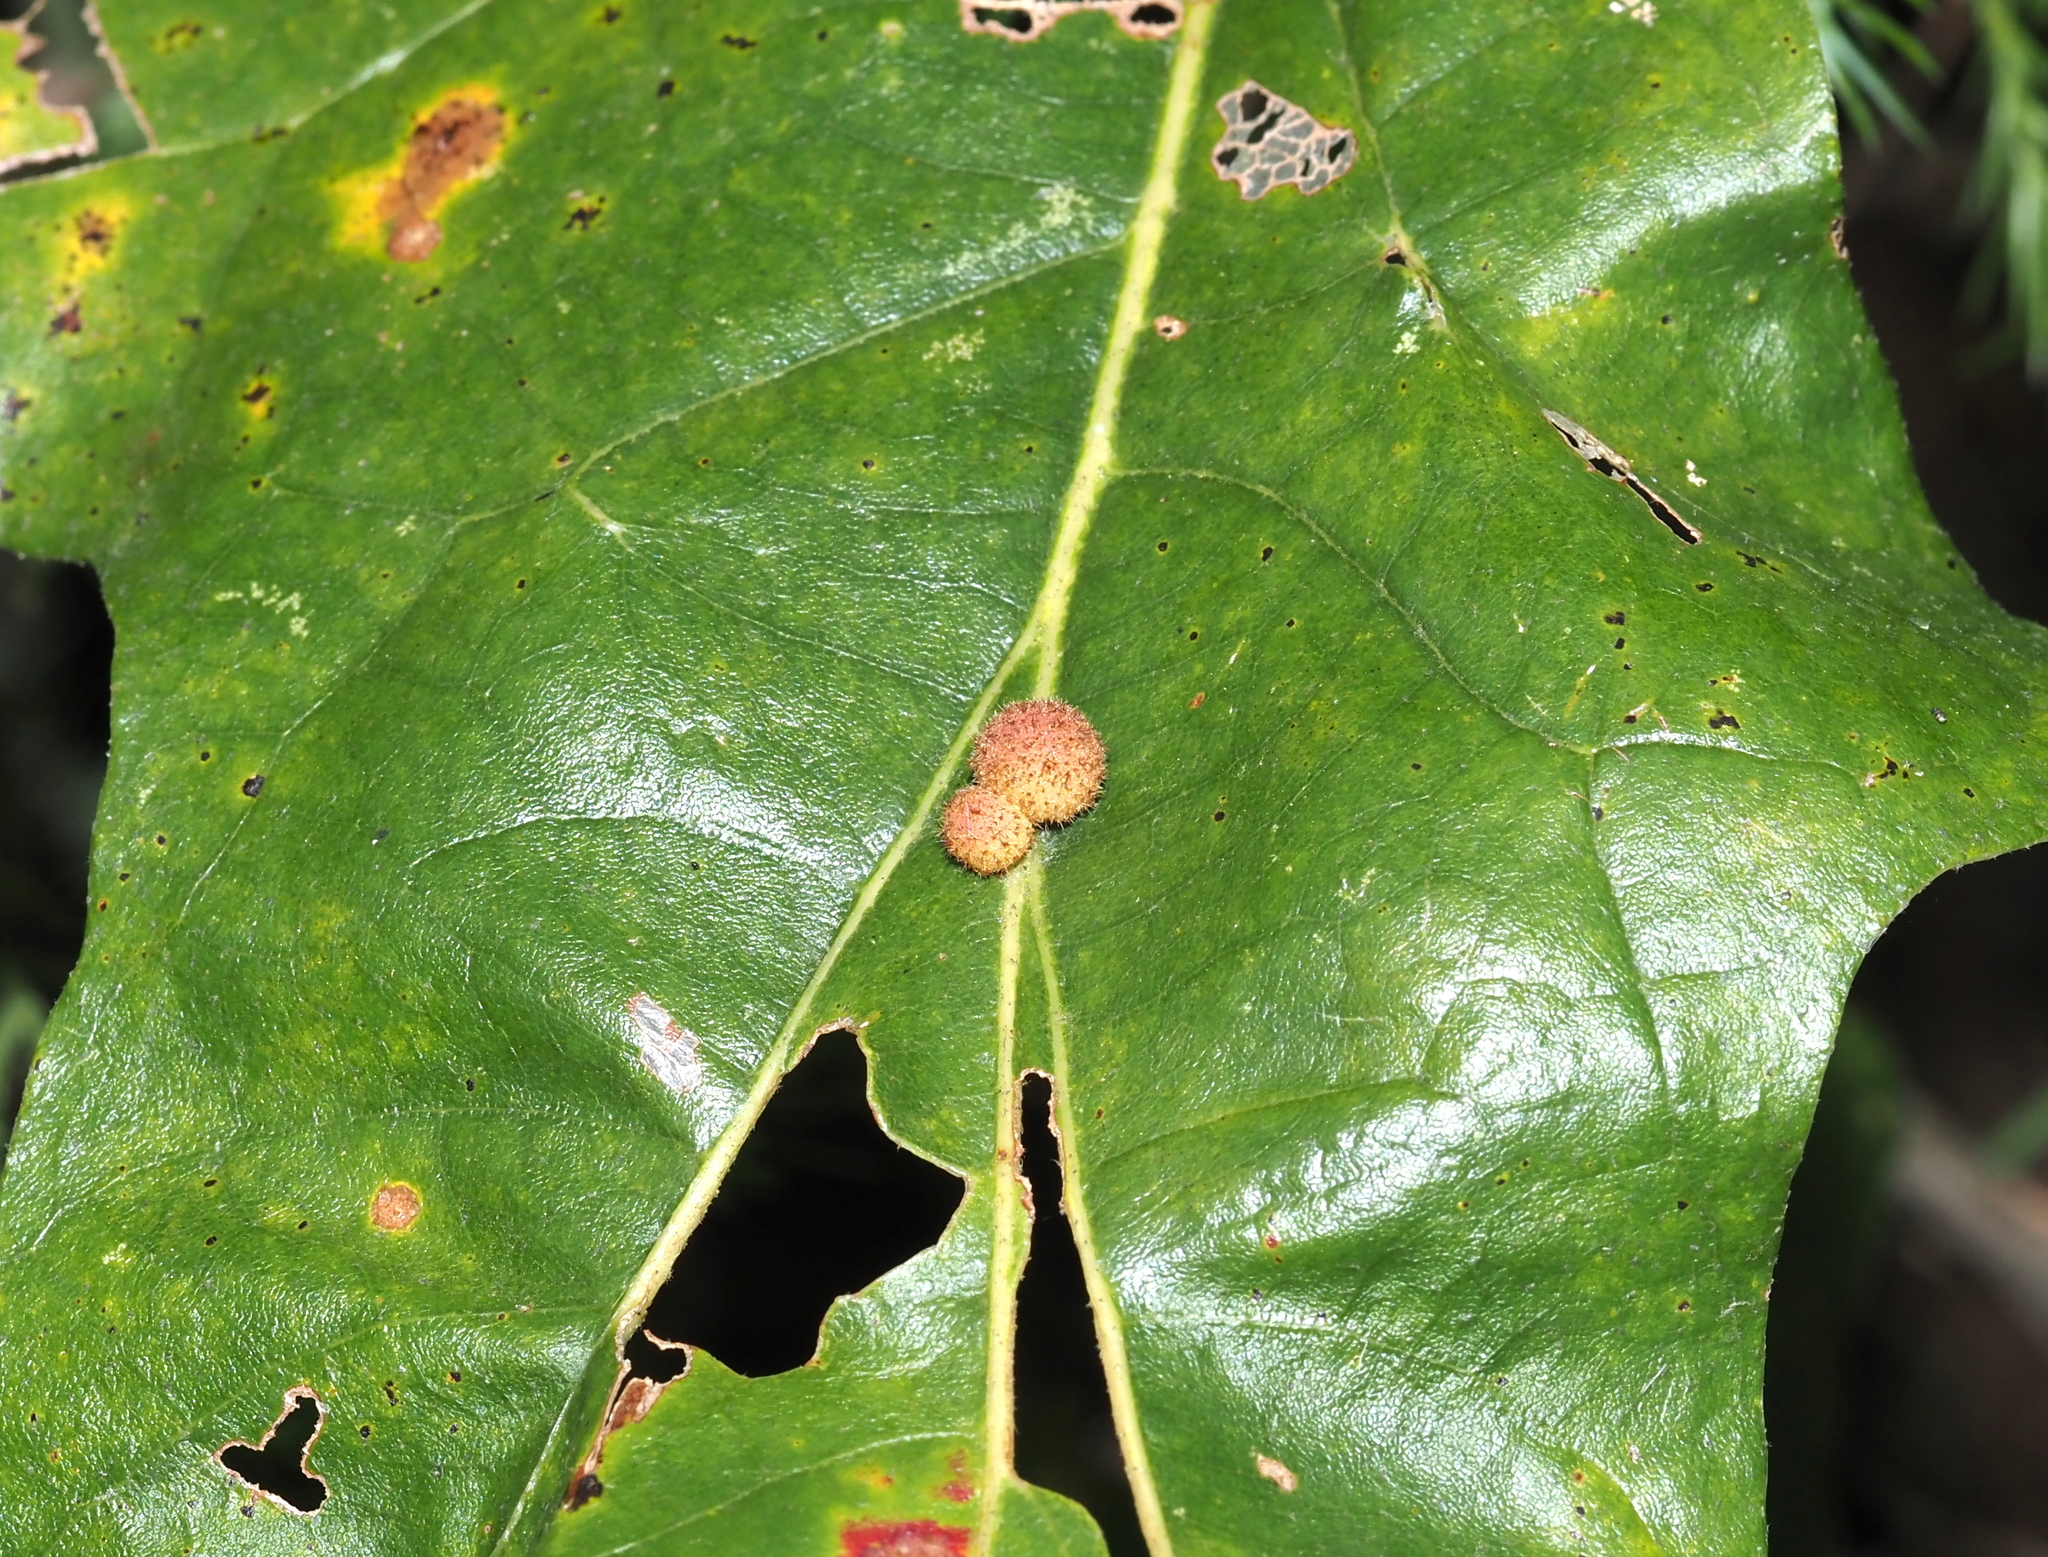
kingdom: Animalia
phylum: Arthropoda
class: Insecta
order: Hymenoptera
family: Cynipidae
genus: Biorhiza
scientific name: Biorhiza Sphaeroteras carolina
